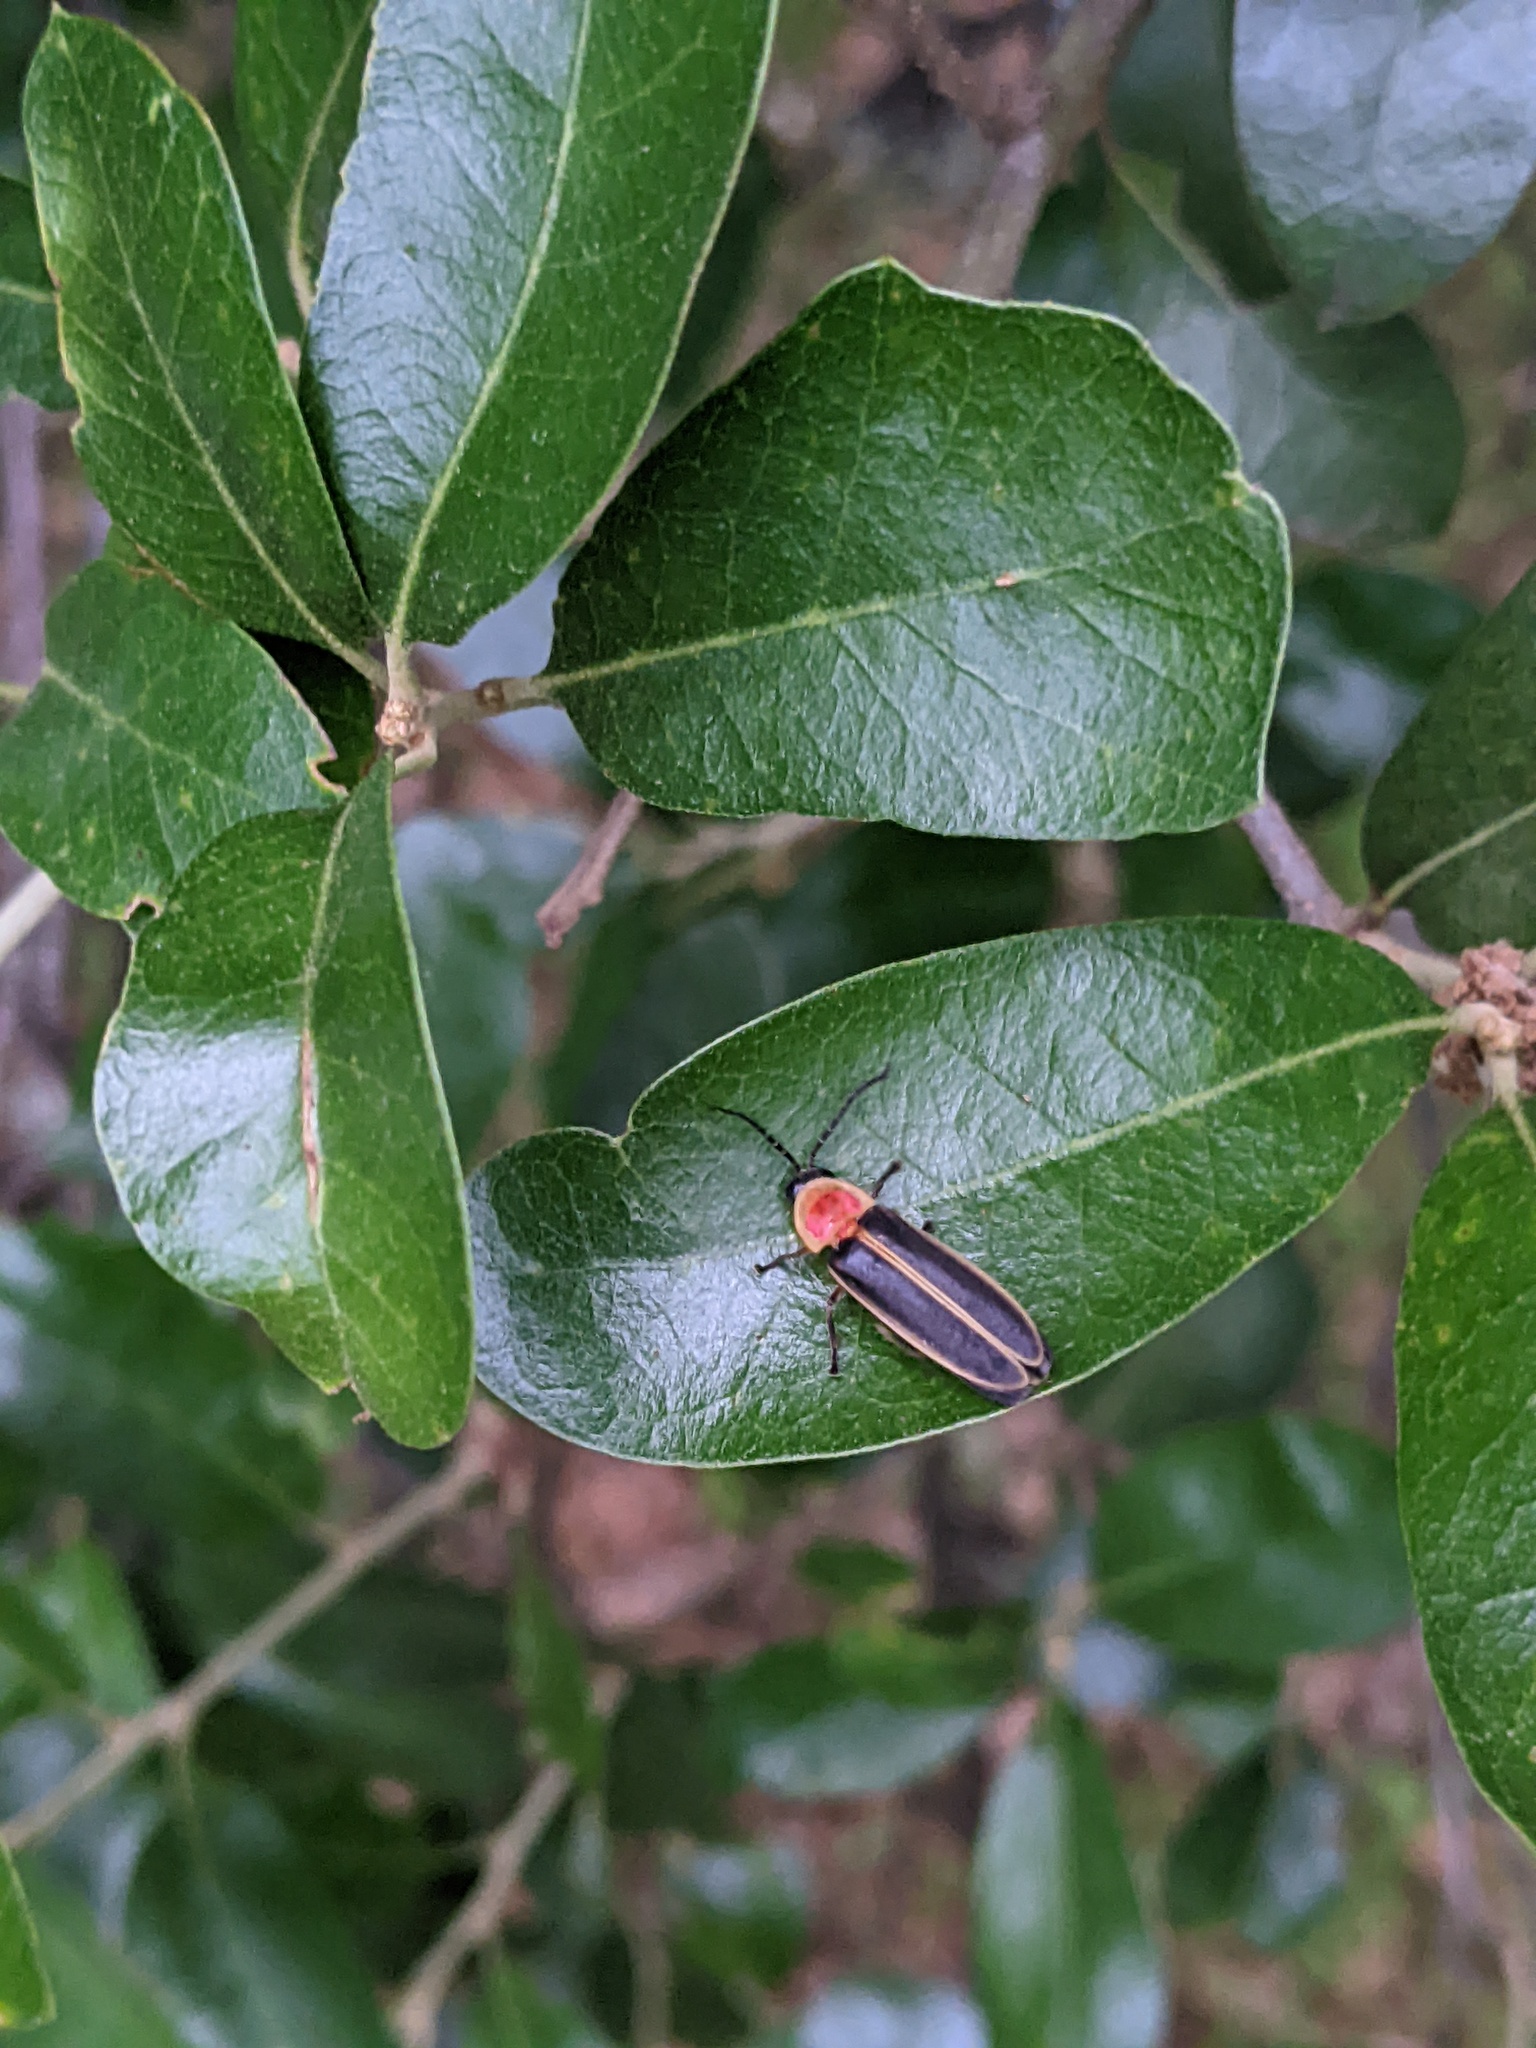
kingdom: Animalia
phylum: Arthropoda
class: Insecta
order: Coleoptera
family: Lampyridae
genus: Photinus
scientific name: Photinus pyralis
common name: Big dipper firefly
